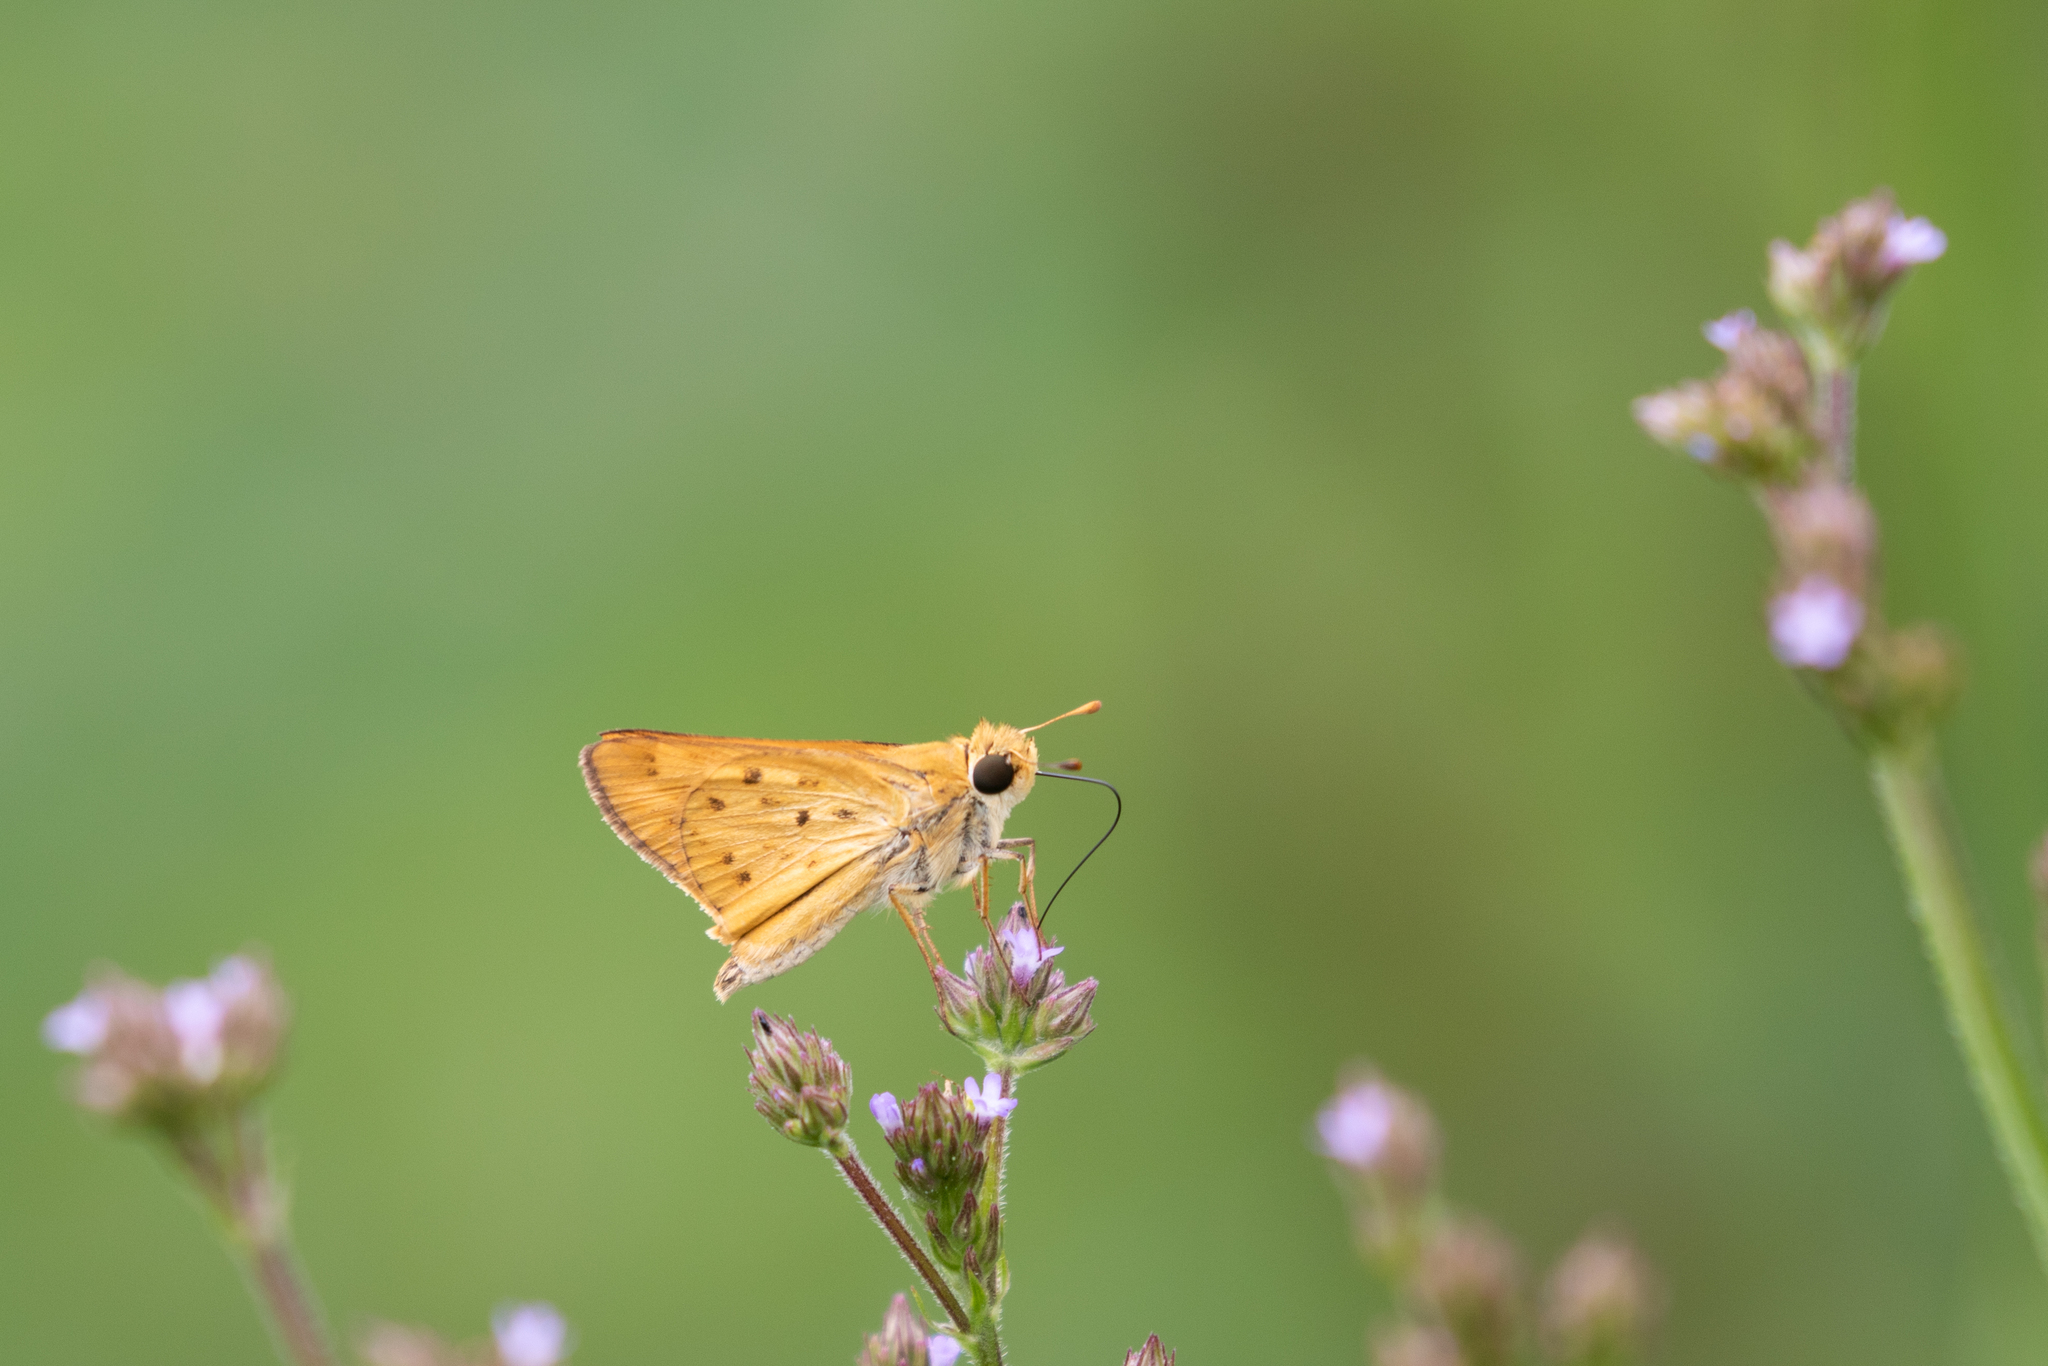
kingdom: Animalia
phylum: Arthropoda
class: Insecta
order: Lepidoptera
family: Hesperiidae
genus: Hylephila
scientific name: Hylephila phyleus
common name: Fiery skipper
